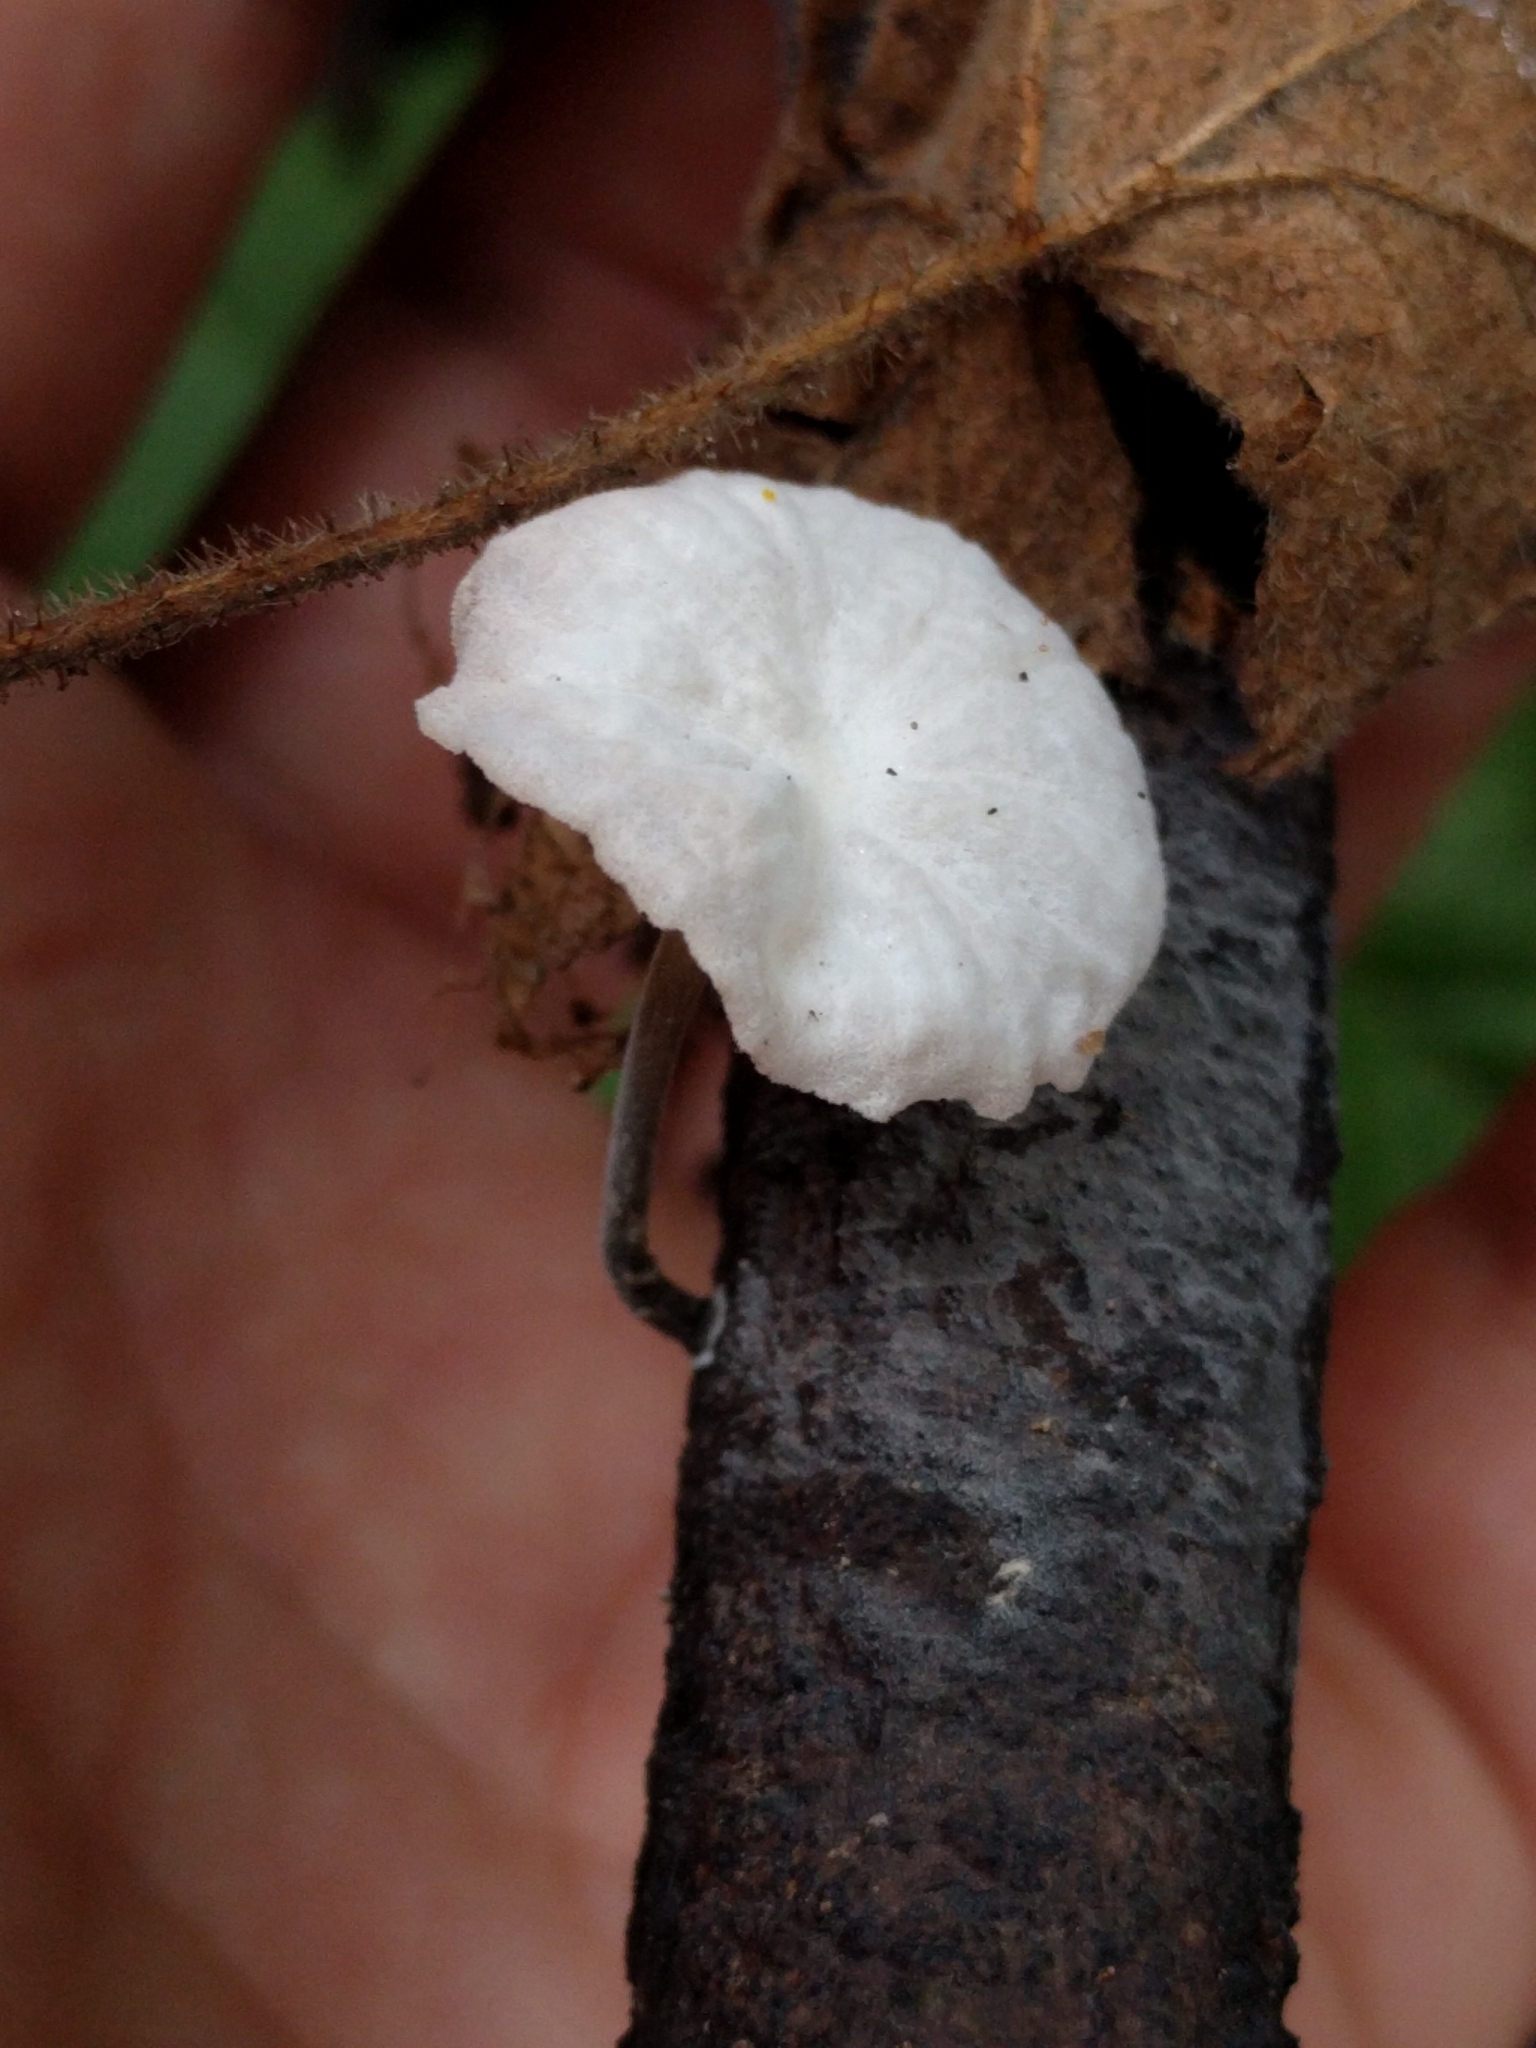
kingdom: Fungi
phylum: Basidiomycota
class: Agaricomycetes
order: Agaricales
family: Omphalotaceae
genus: Marasmiellus
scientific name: Marasmiellus candidus
